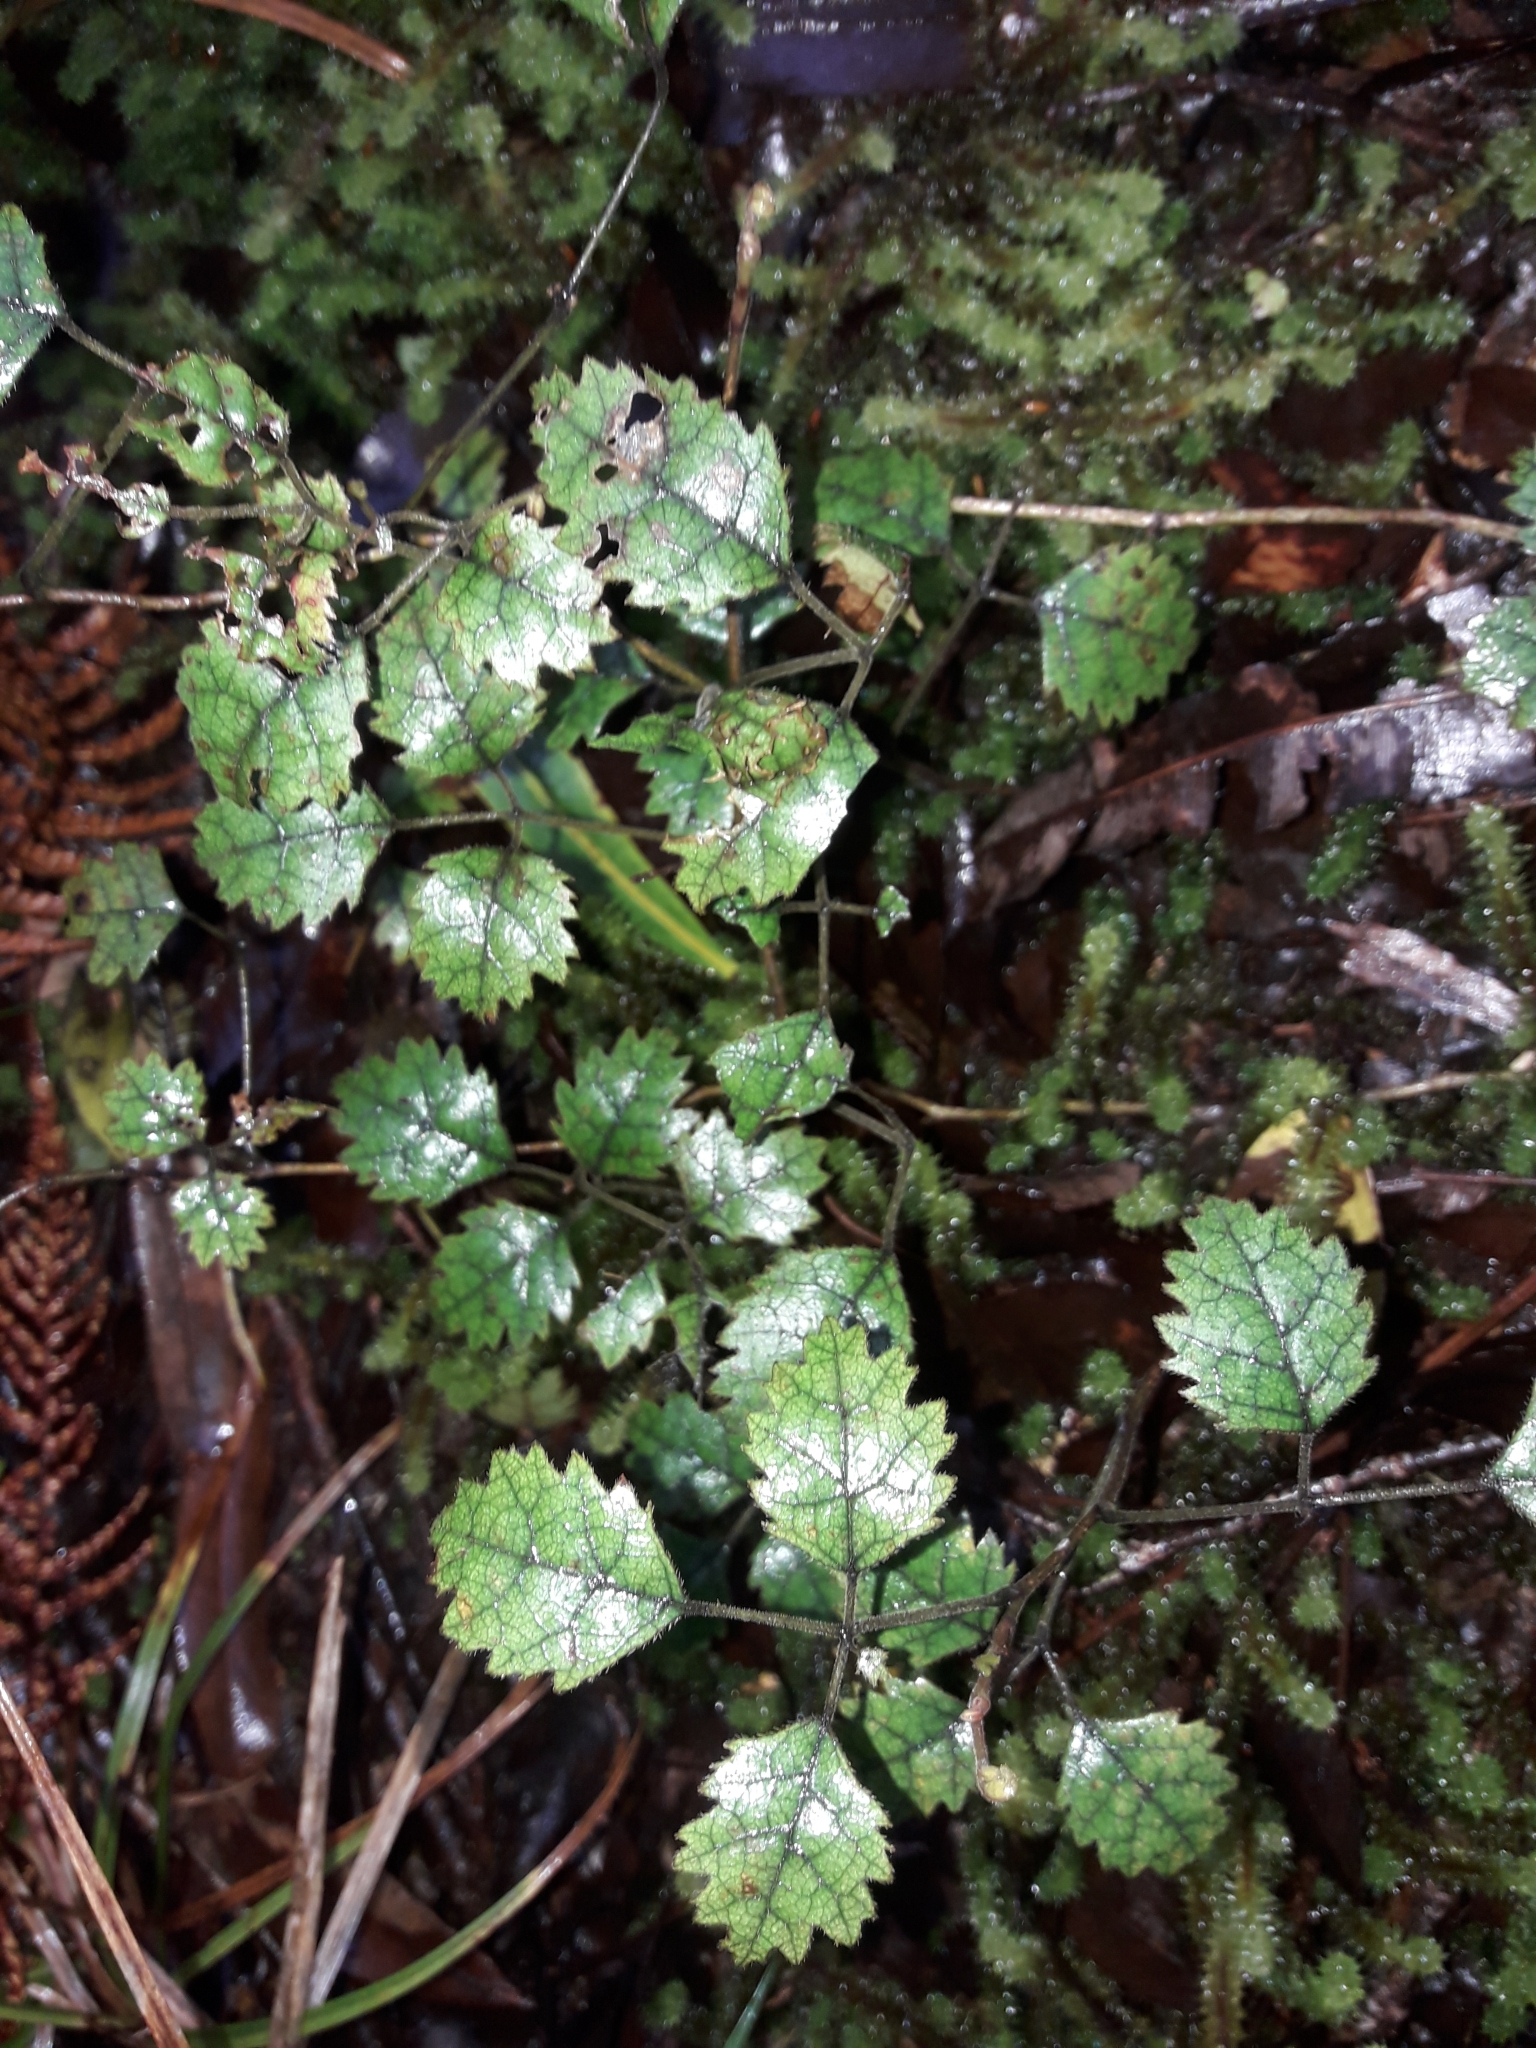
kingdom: Plantae
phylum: Tracheophyta
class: Magnoliopsida
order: Rosales
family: Rosaceae
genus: Rubus
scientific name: Rubus australis
